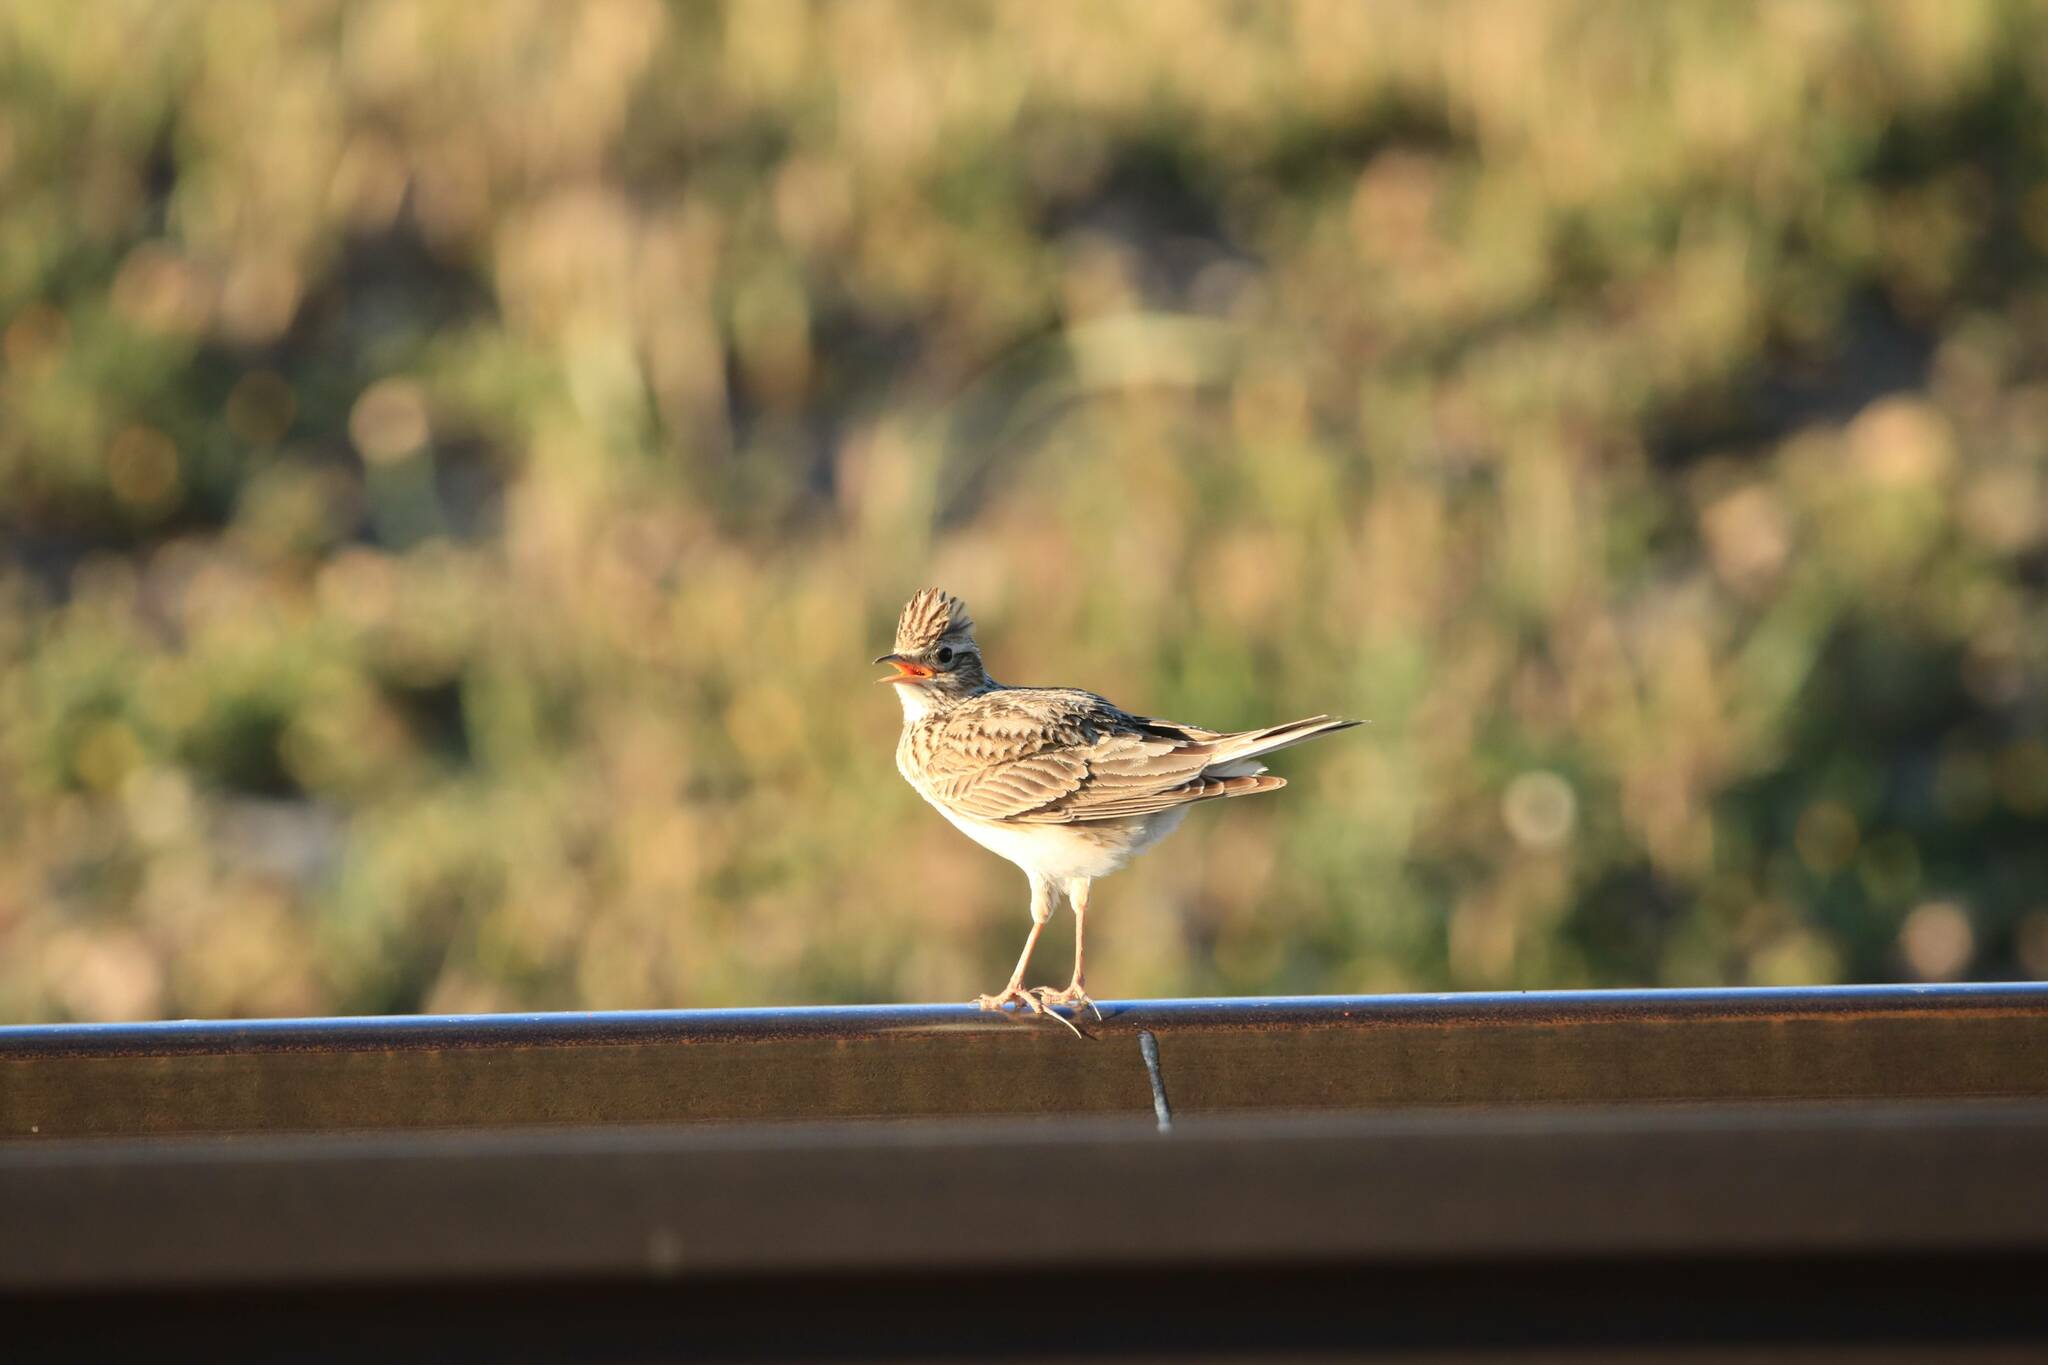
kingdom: Animalia
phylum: Chordata
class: Aves
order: Passeriformes
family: Alaudidae
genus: Alauda
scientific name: Alauda arvensis
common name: Eurasian skylark
